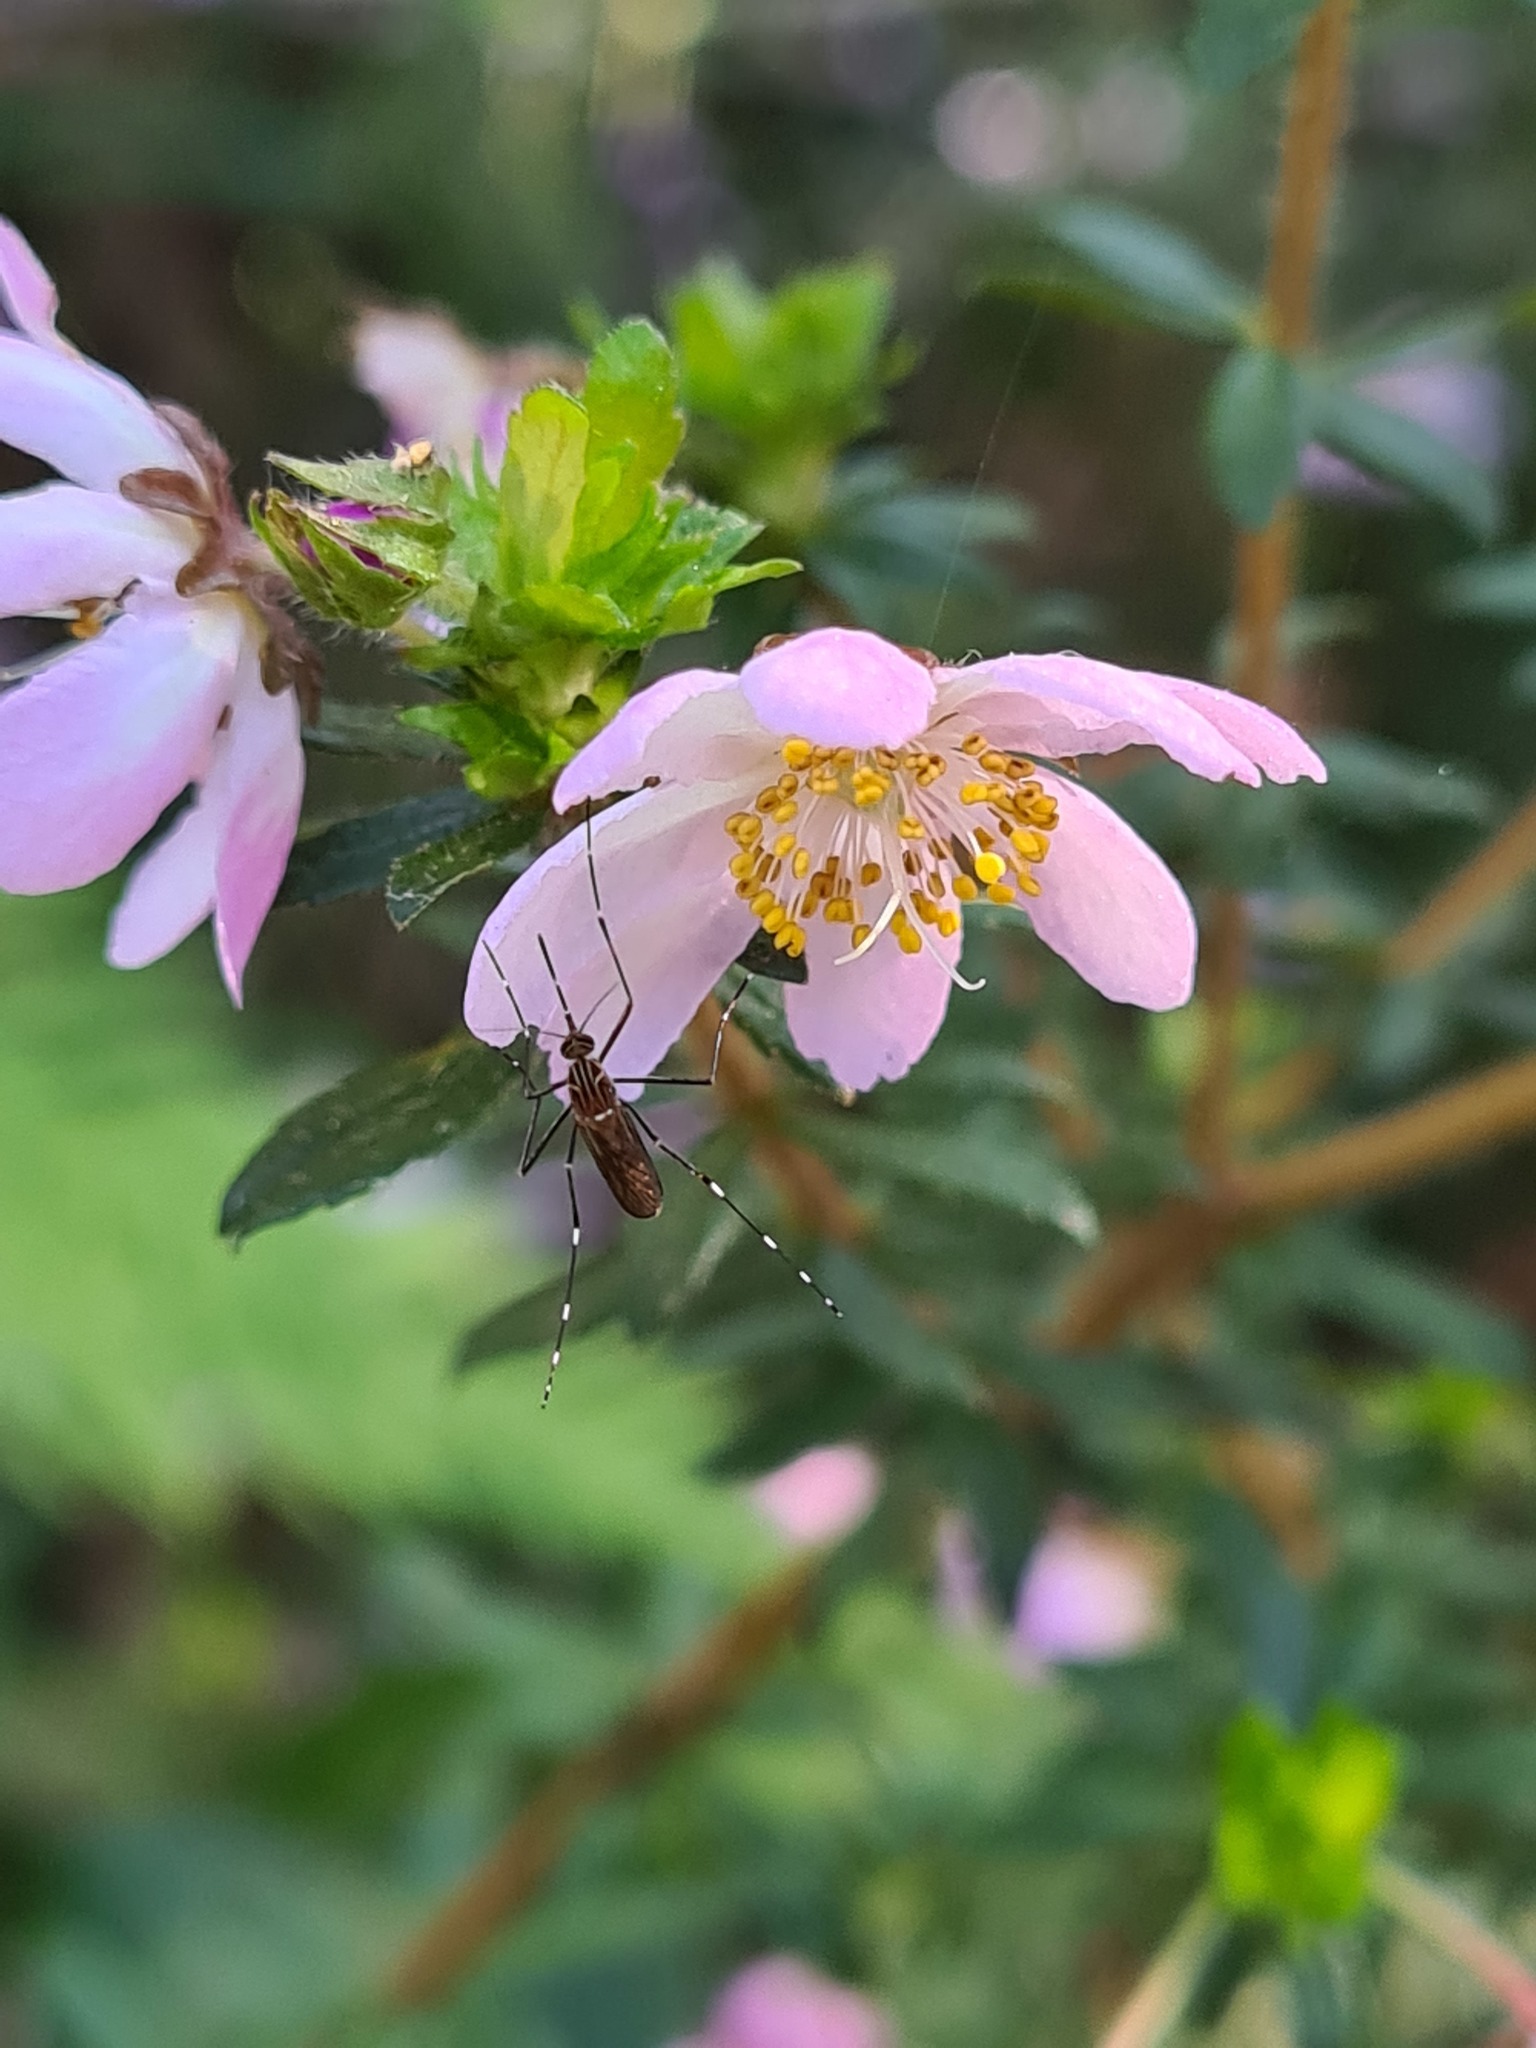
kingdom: Animalia
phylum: Arthropoda
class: Insecta
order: Diptera
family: Culicidae
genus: Aedes
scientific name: Aedes notoscriptus
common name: Australian backyard mosquito
